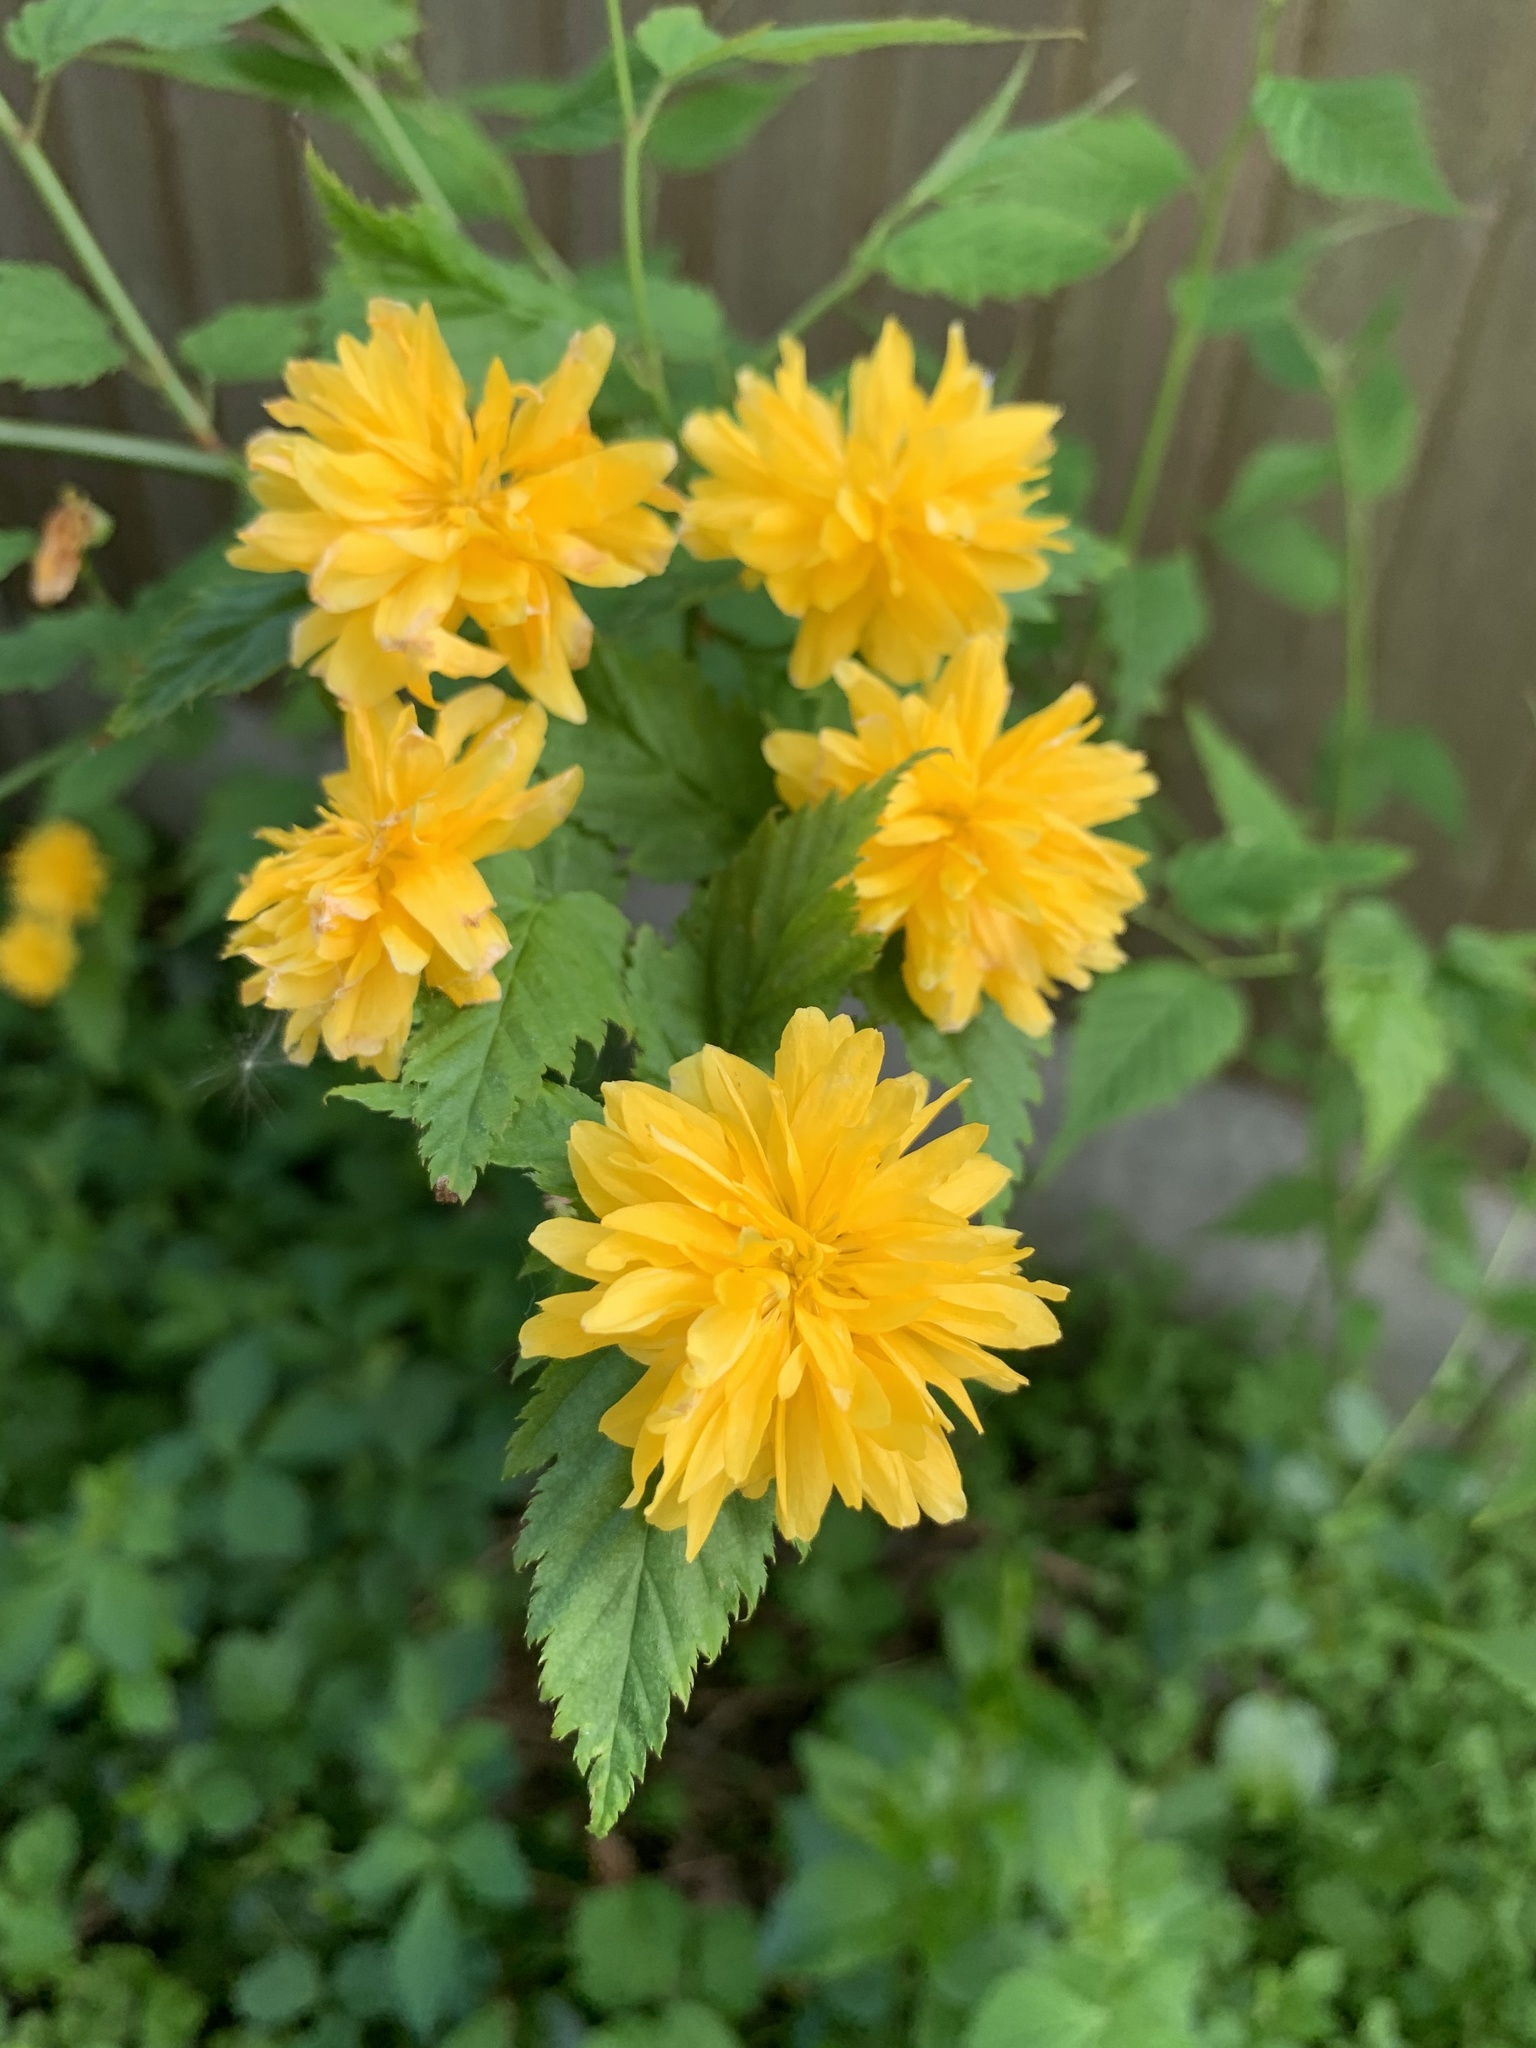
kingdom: Plantae
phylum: Tracheophyta
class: Magnoliopsida
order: Rosales
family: Rosaceae
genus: Kerria
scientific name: Kerria japonica
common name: Japanese kerria
